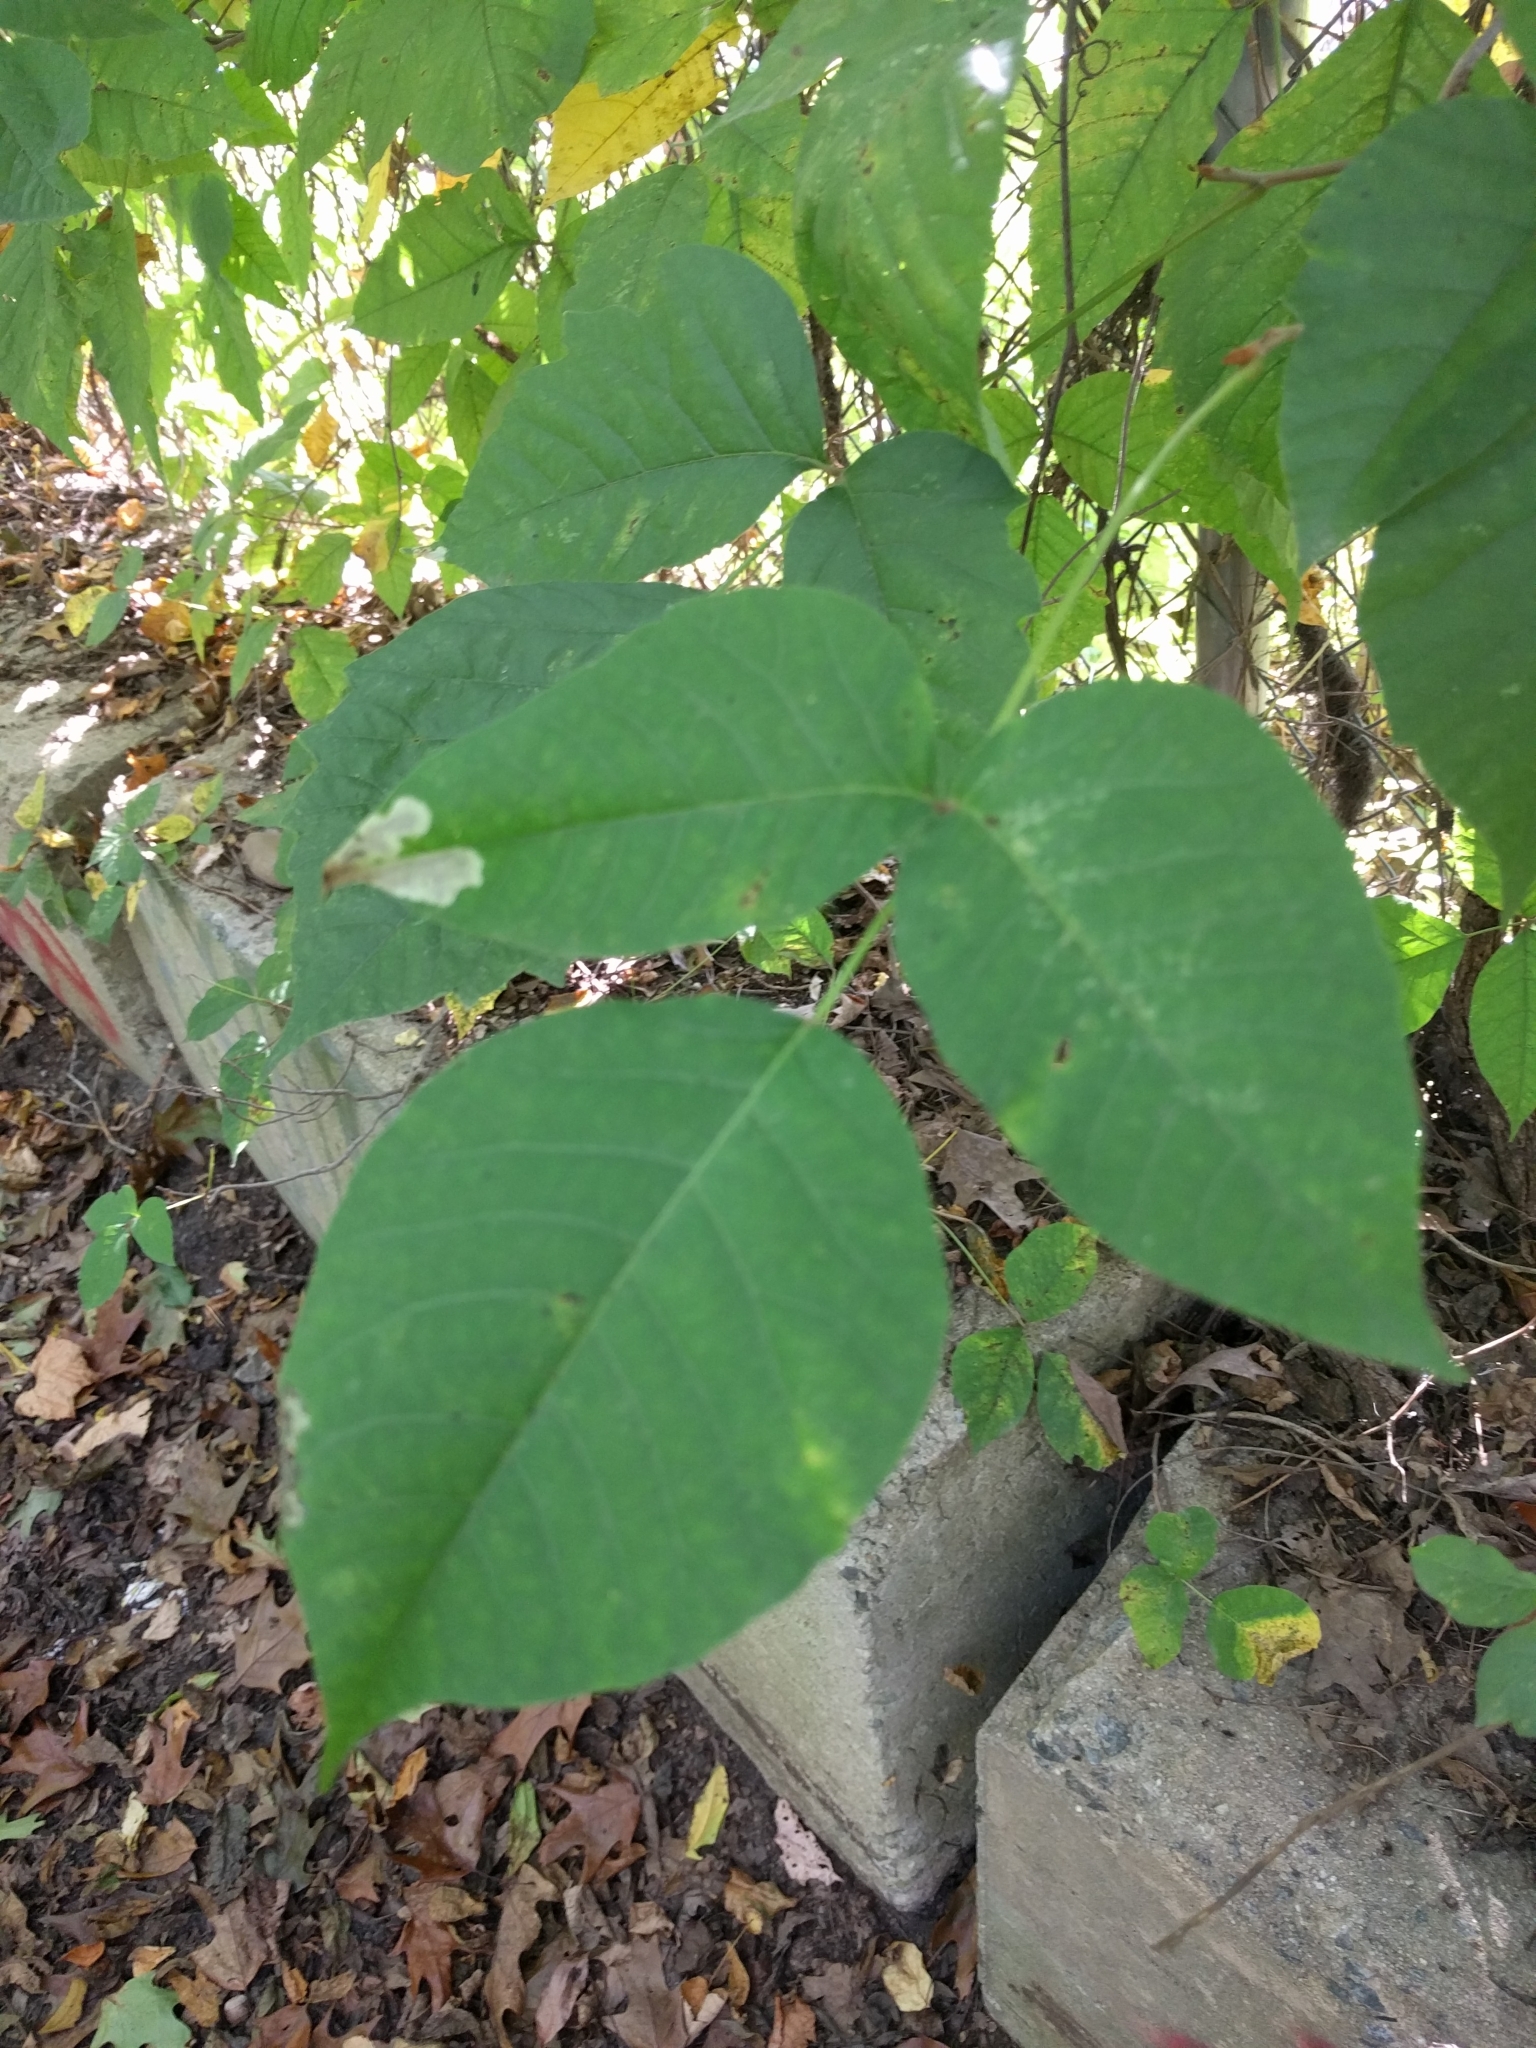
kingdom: Plantae
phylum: Tracheophyta
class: Magnoliopsida
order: Sapindales
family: Anacardiaceae
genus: Toxicodendron
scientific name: Toxicodendron radicans
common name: Poison ivy
